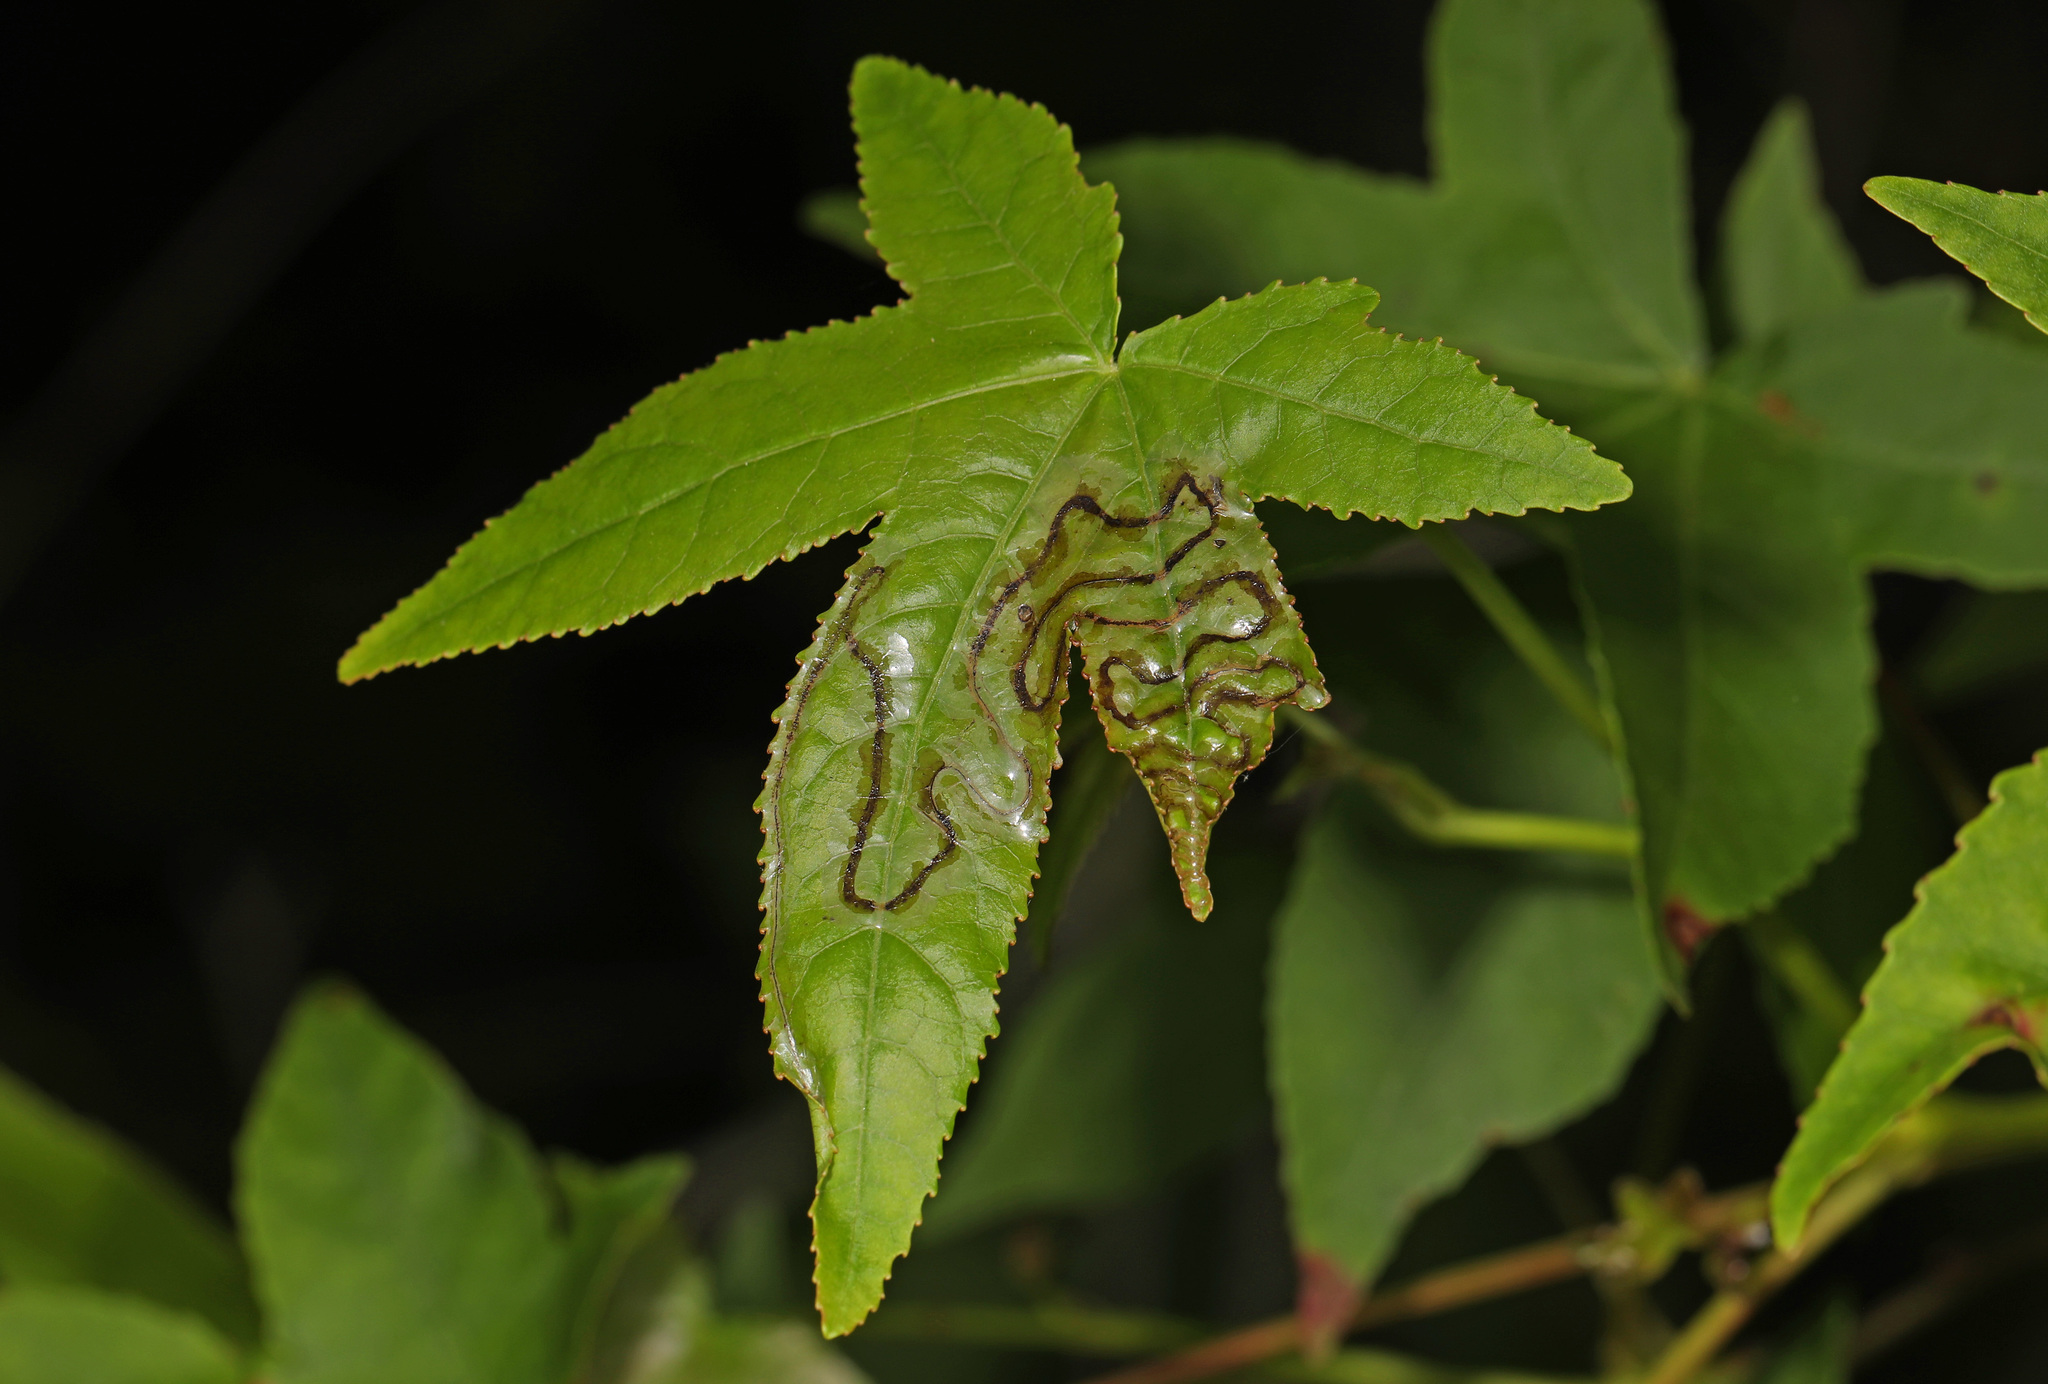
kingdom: Animalia
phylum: Arthropoda
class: Insecta
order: Lepidoptera
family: Gracillariidae
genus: Phyllocnistis
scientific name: Phyllocnistis liquidambarisella
